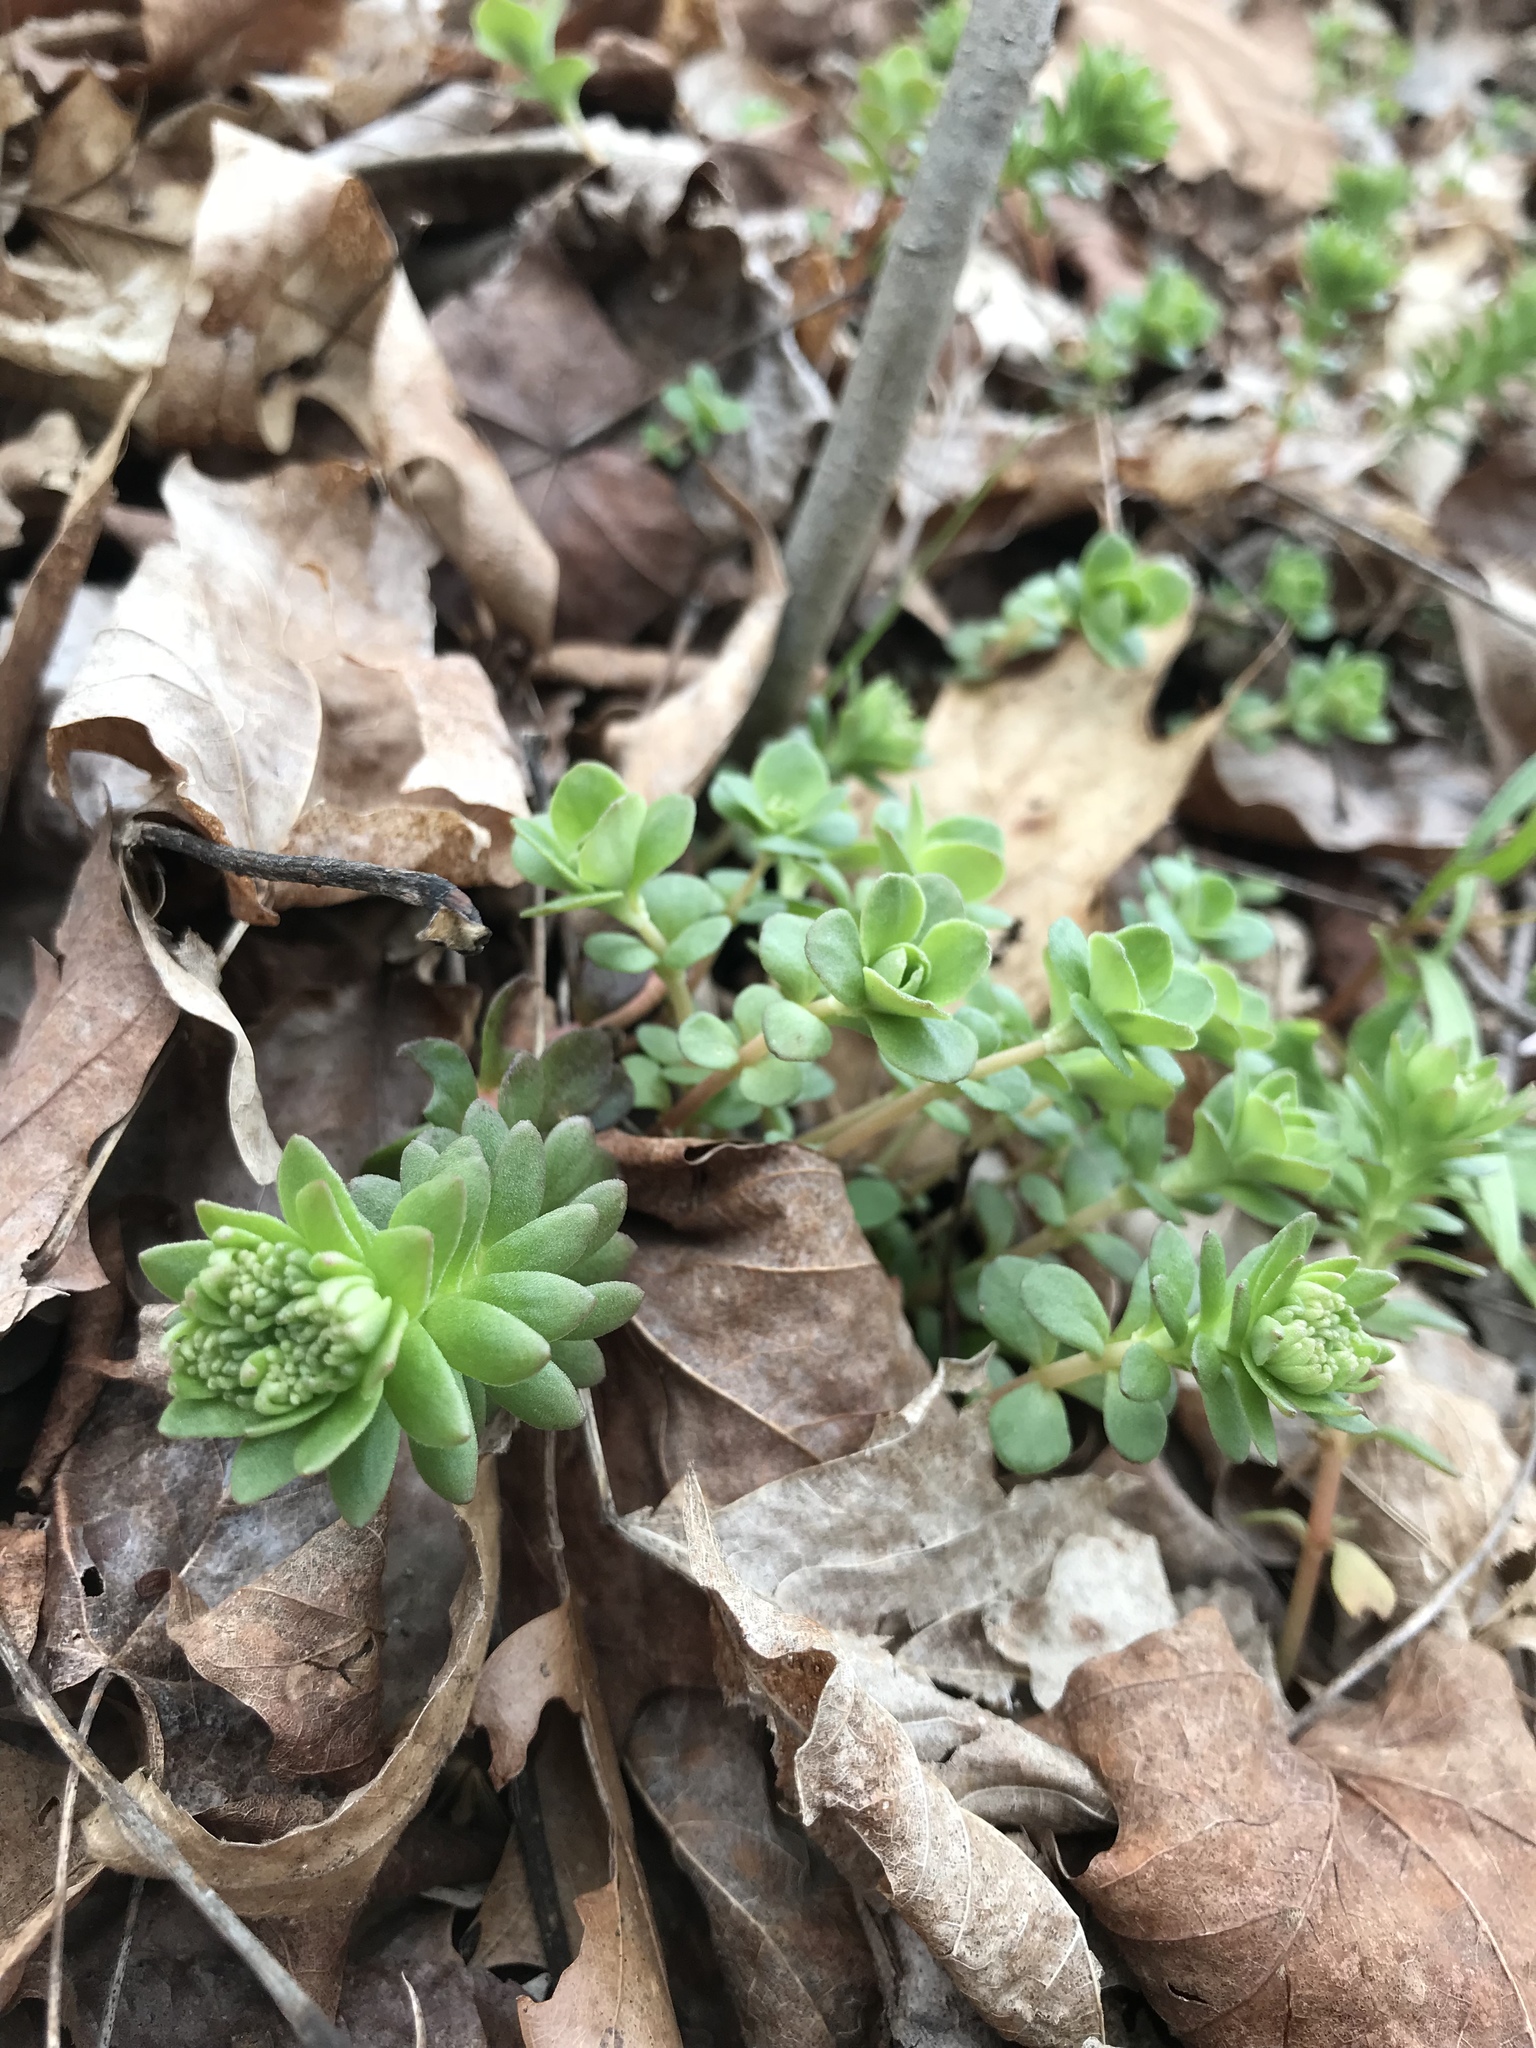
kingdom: Plantae
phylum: Tracheophyta
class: Magnoliopsida
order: Saxifragales
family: Crassulaceae
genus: Sedum
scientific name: Sedum ternatum
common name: Wild stonecrop
